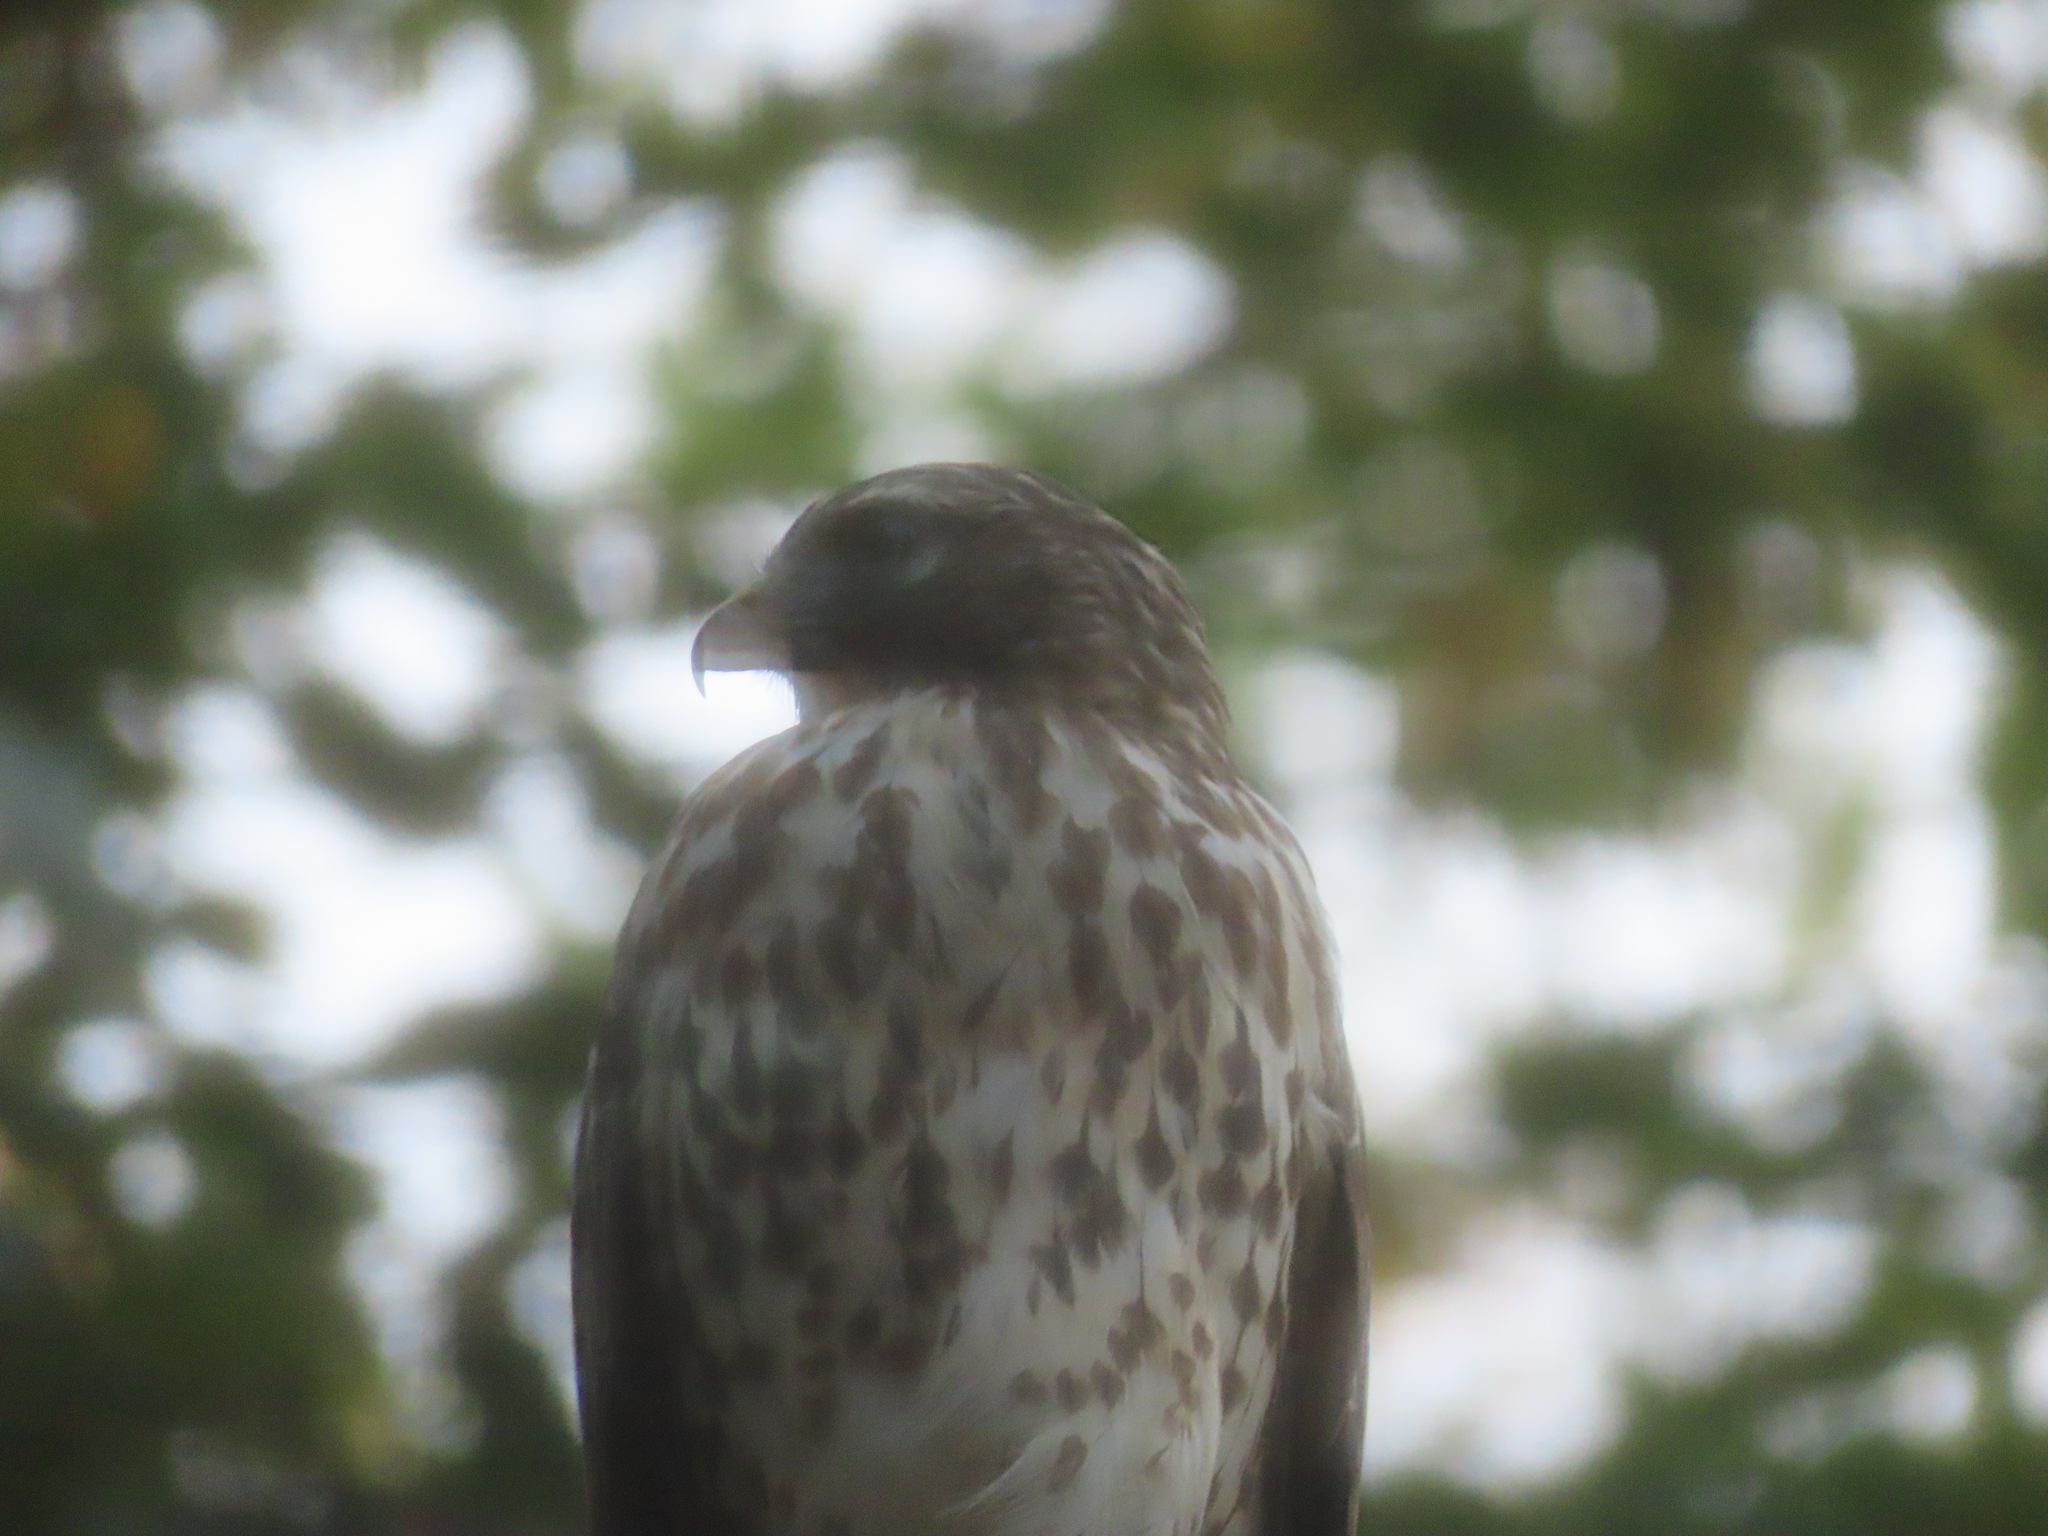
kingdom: Animalia
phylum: Chordata
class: Aves
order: Accipitriformes
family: Accipitridae
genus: Buteo
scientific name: Buteo lineatus
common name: Red-shouldered hawk
